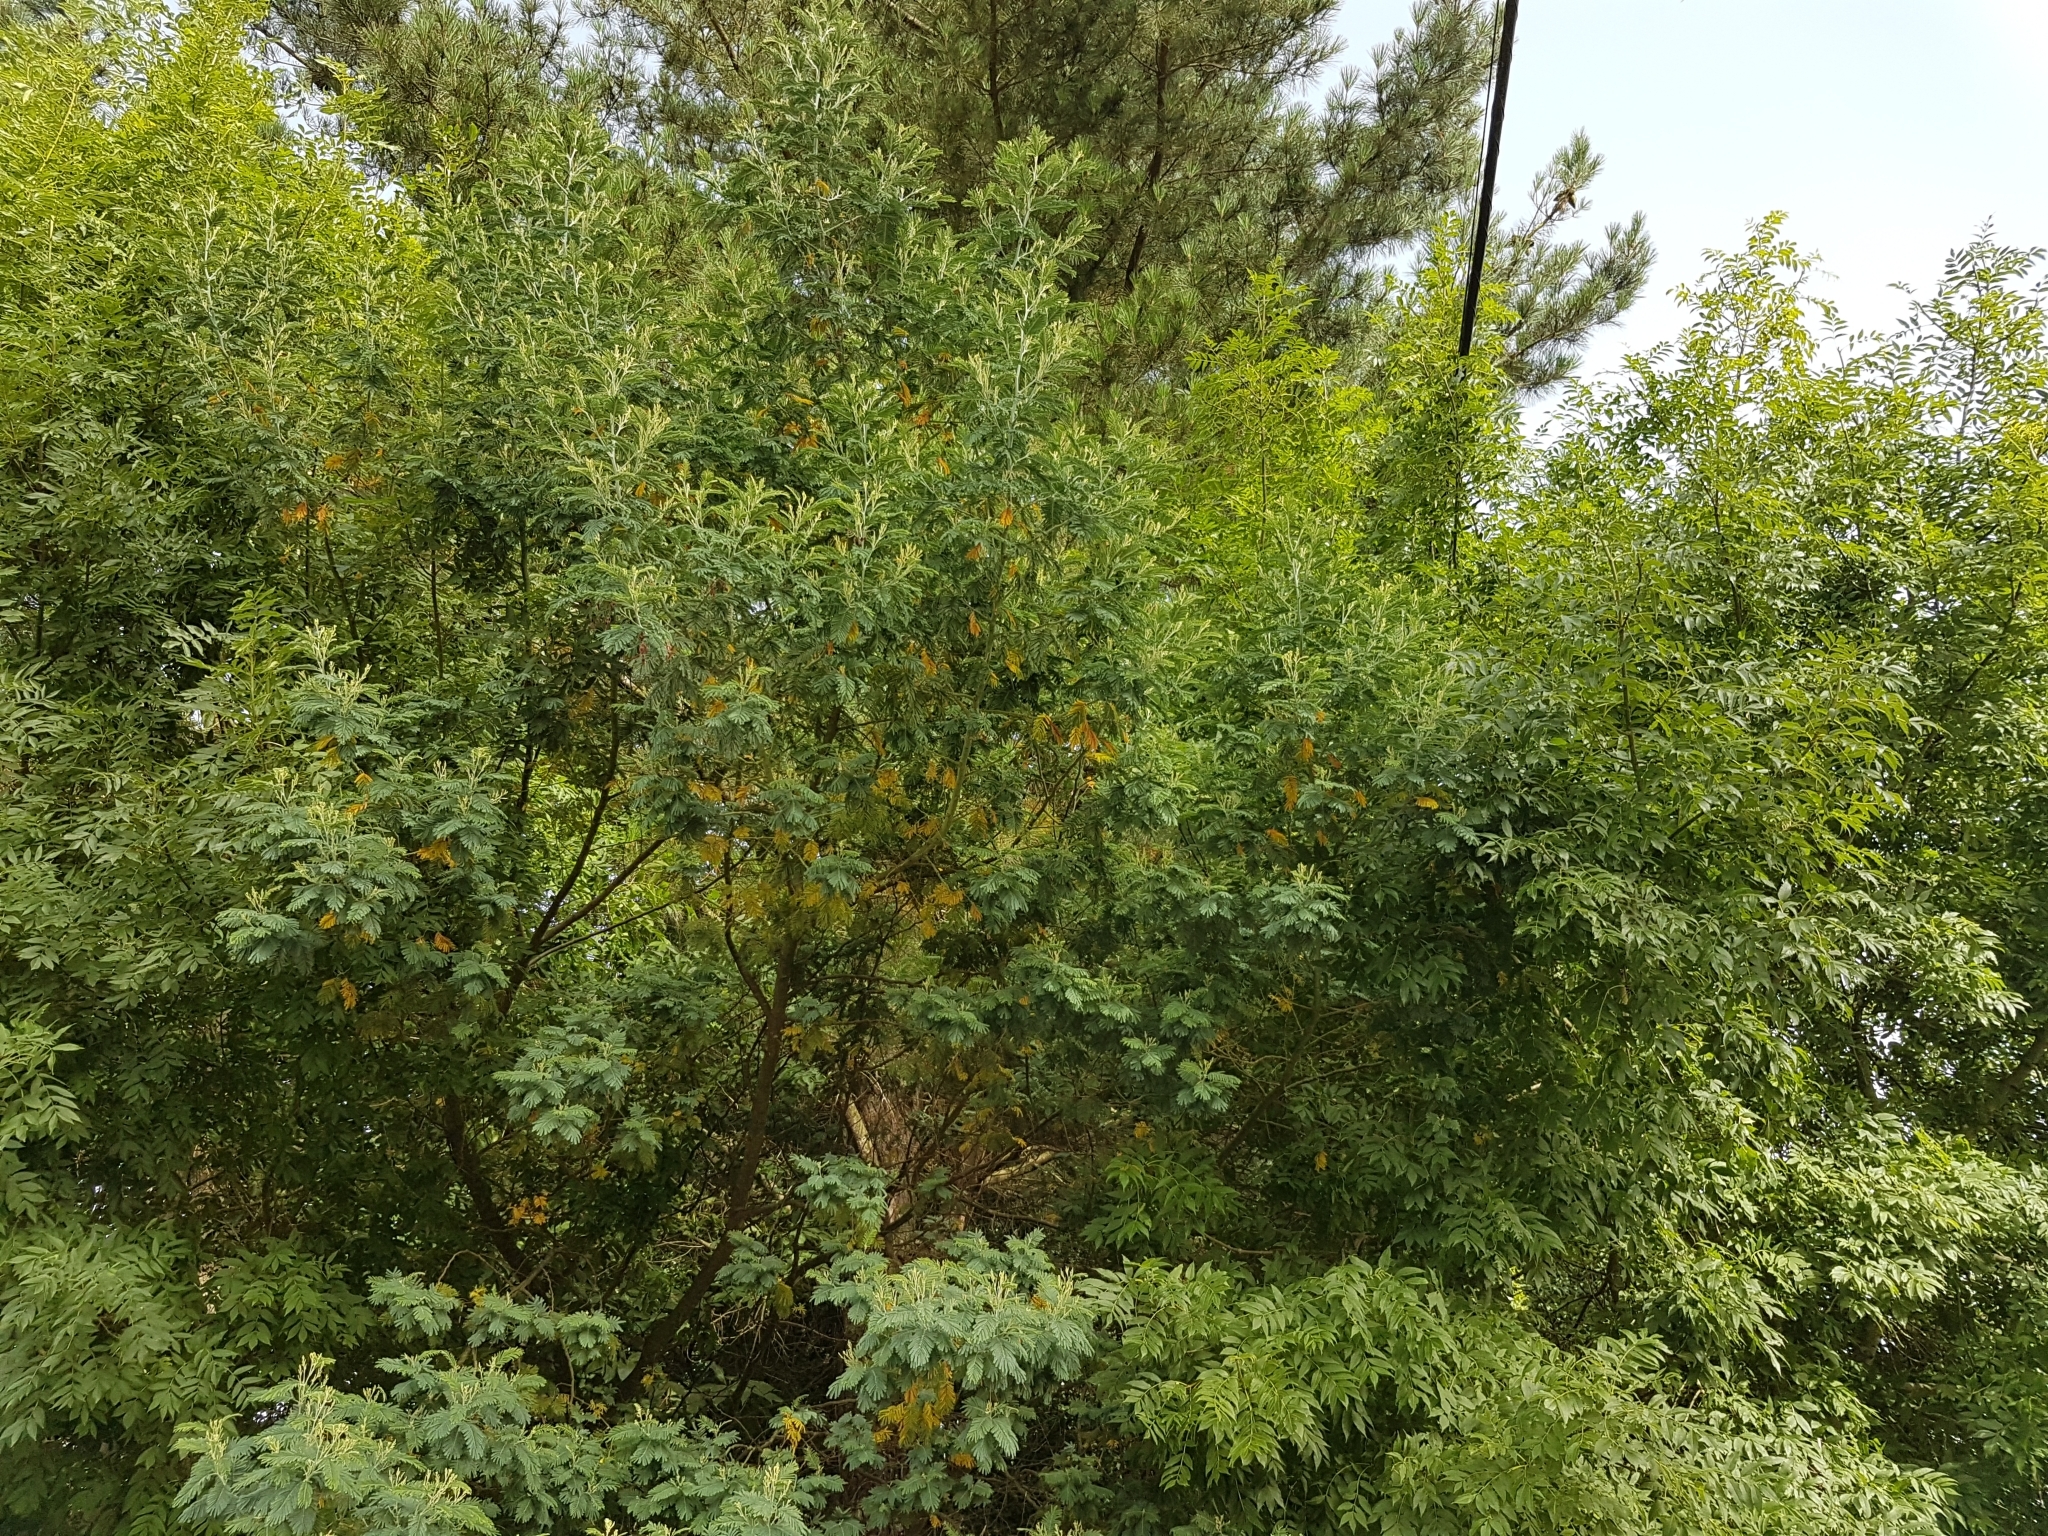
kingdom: Plantae
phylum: Tracheophyta
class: Magnoliopsida
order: Fabales
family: Fabaceae
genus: Acacia
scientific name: Acacia dealbata
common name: Silver wattle
